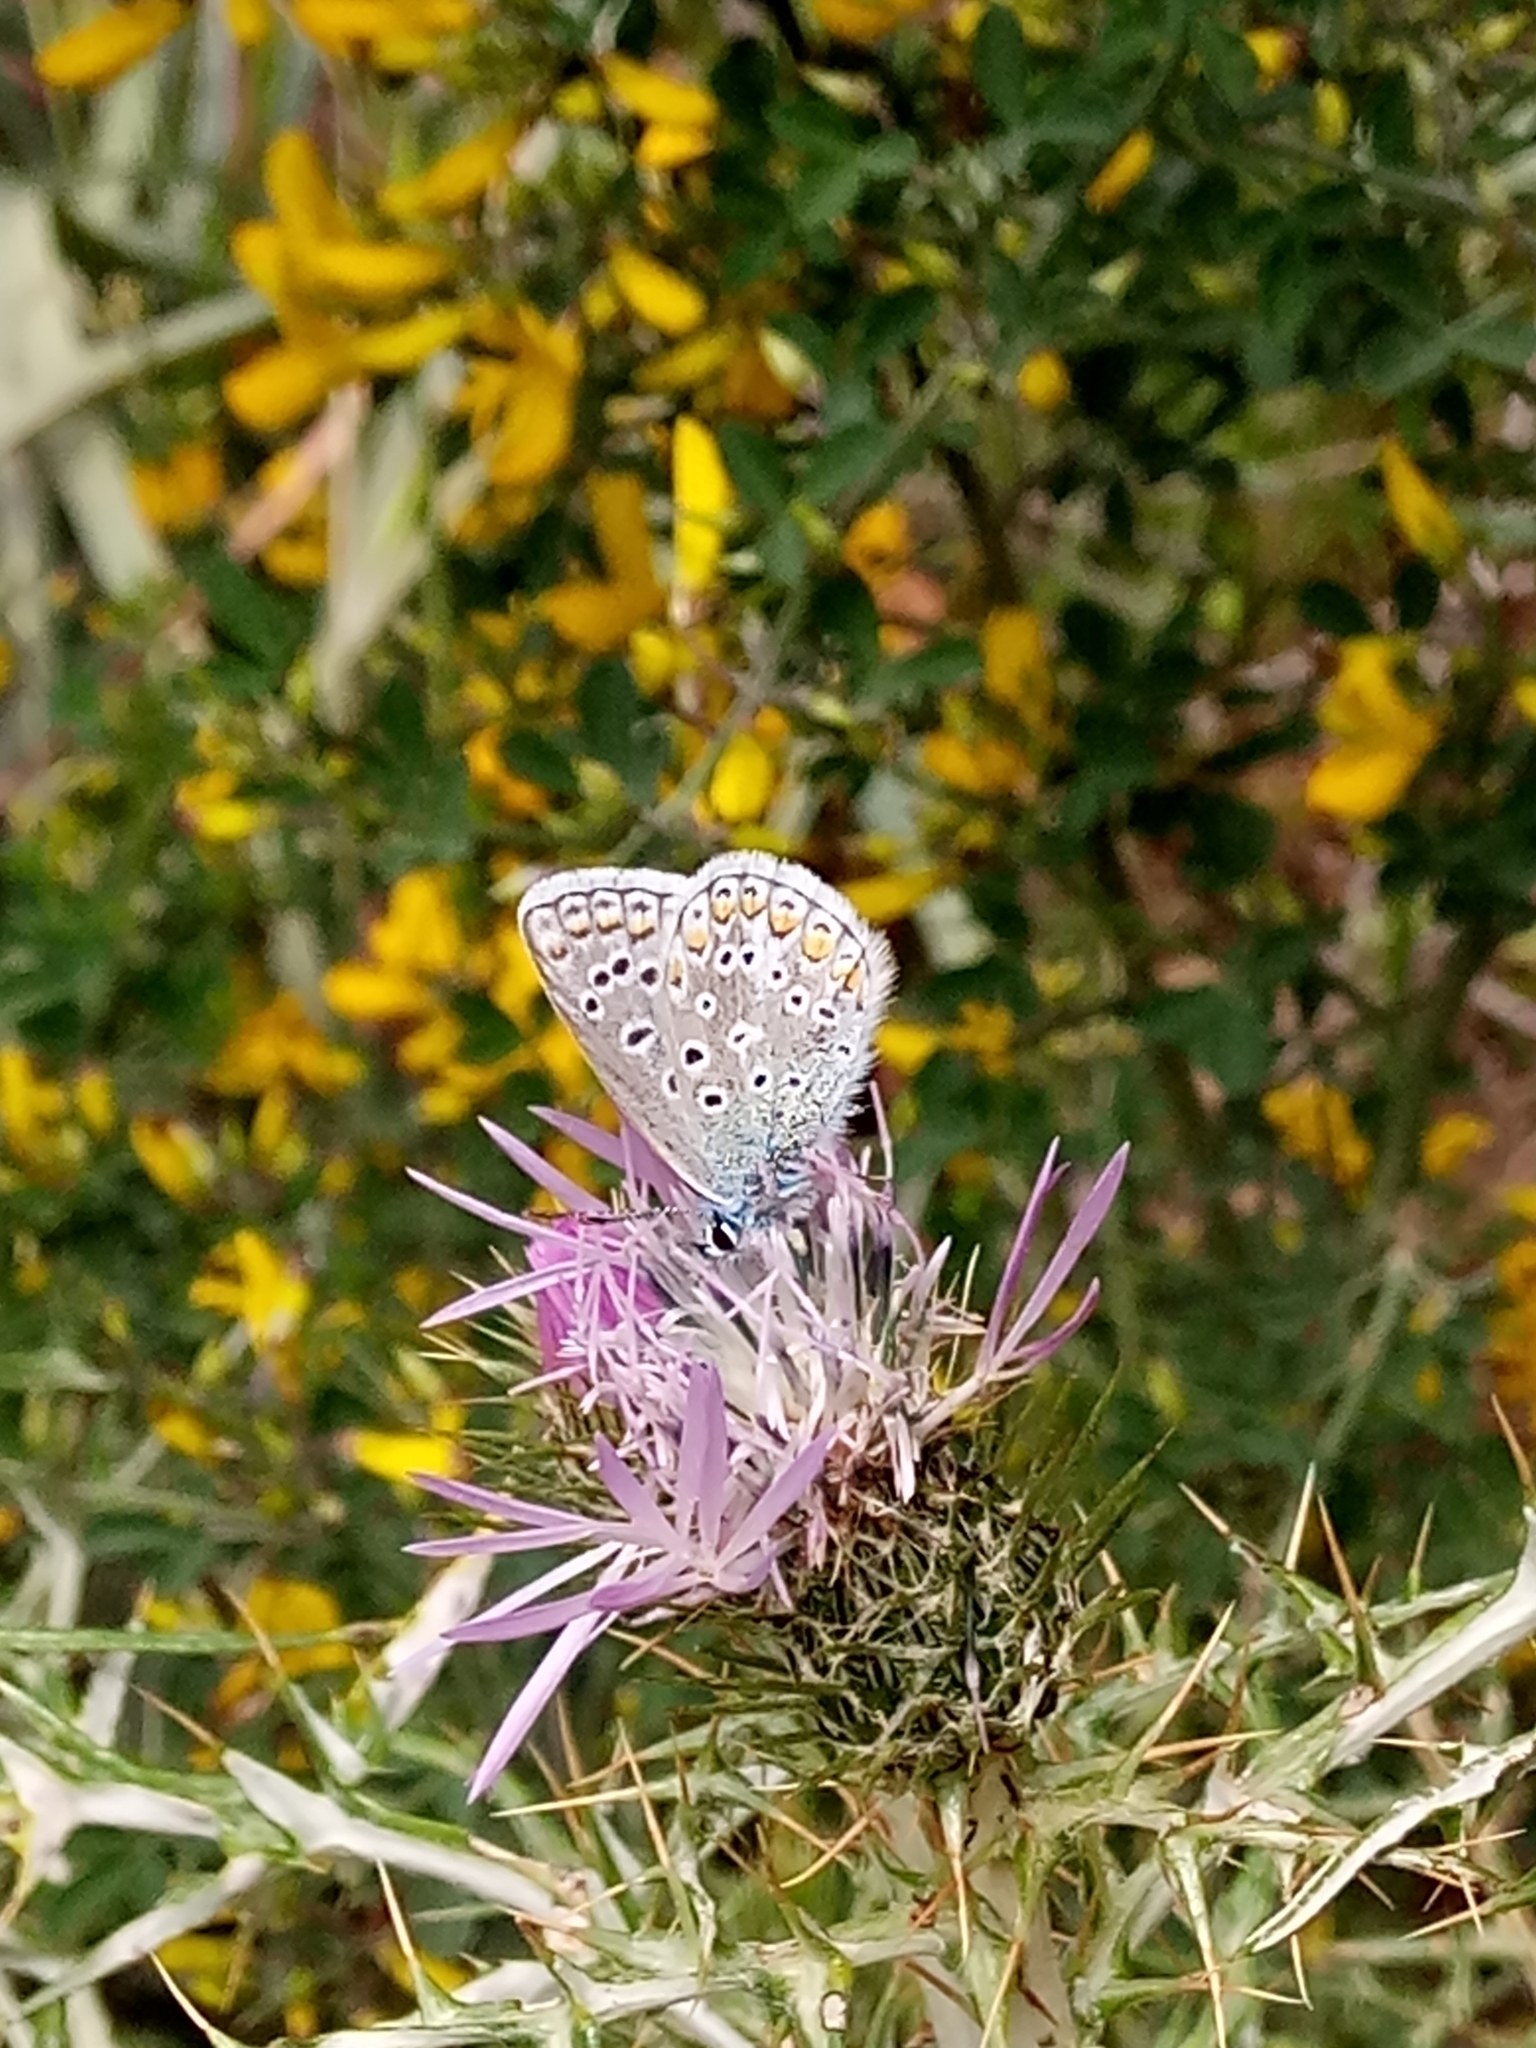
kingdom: Animalia
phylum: Arthropoda
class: Insecta
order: Lepidoptera
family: Lycaenidae
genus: Polyommatus
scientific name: Polyommatus celina
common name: Austaut's blue
